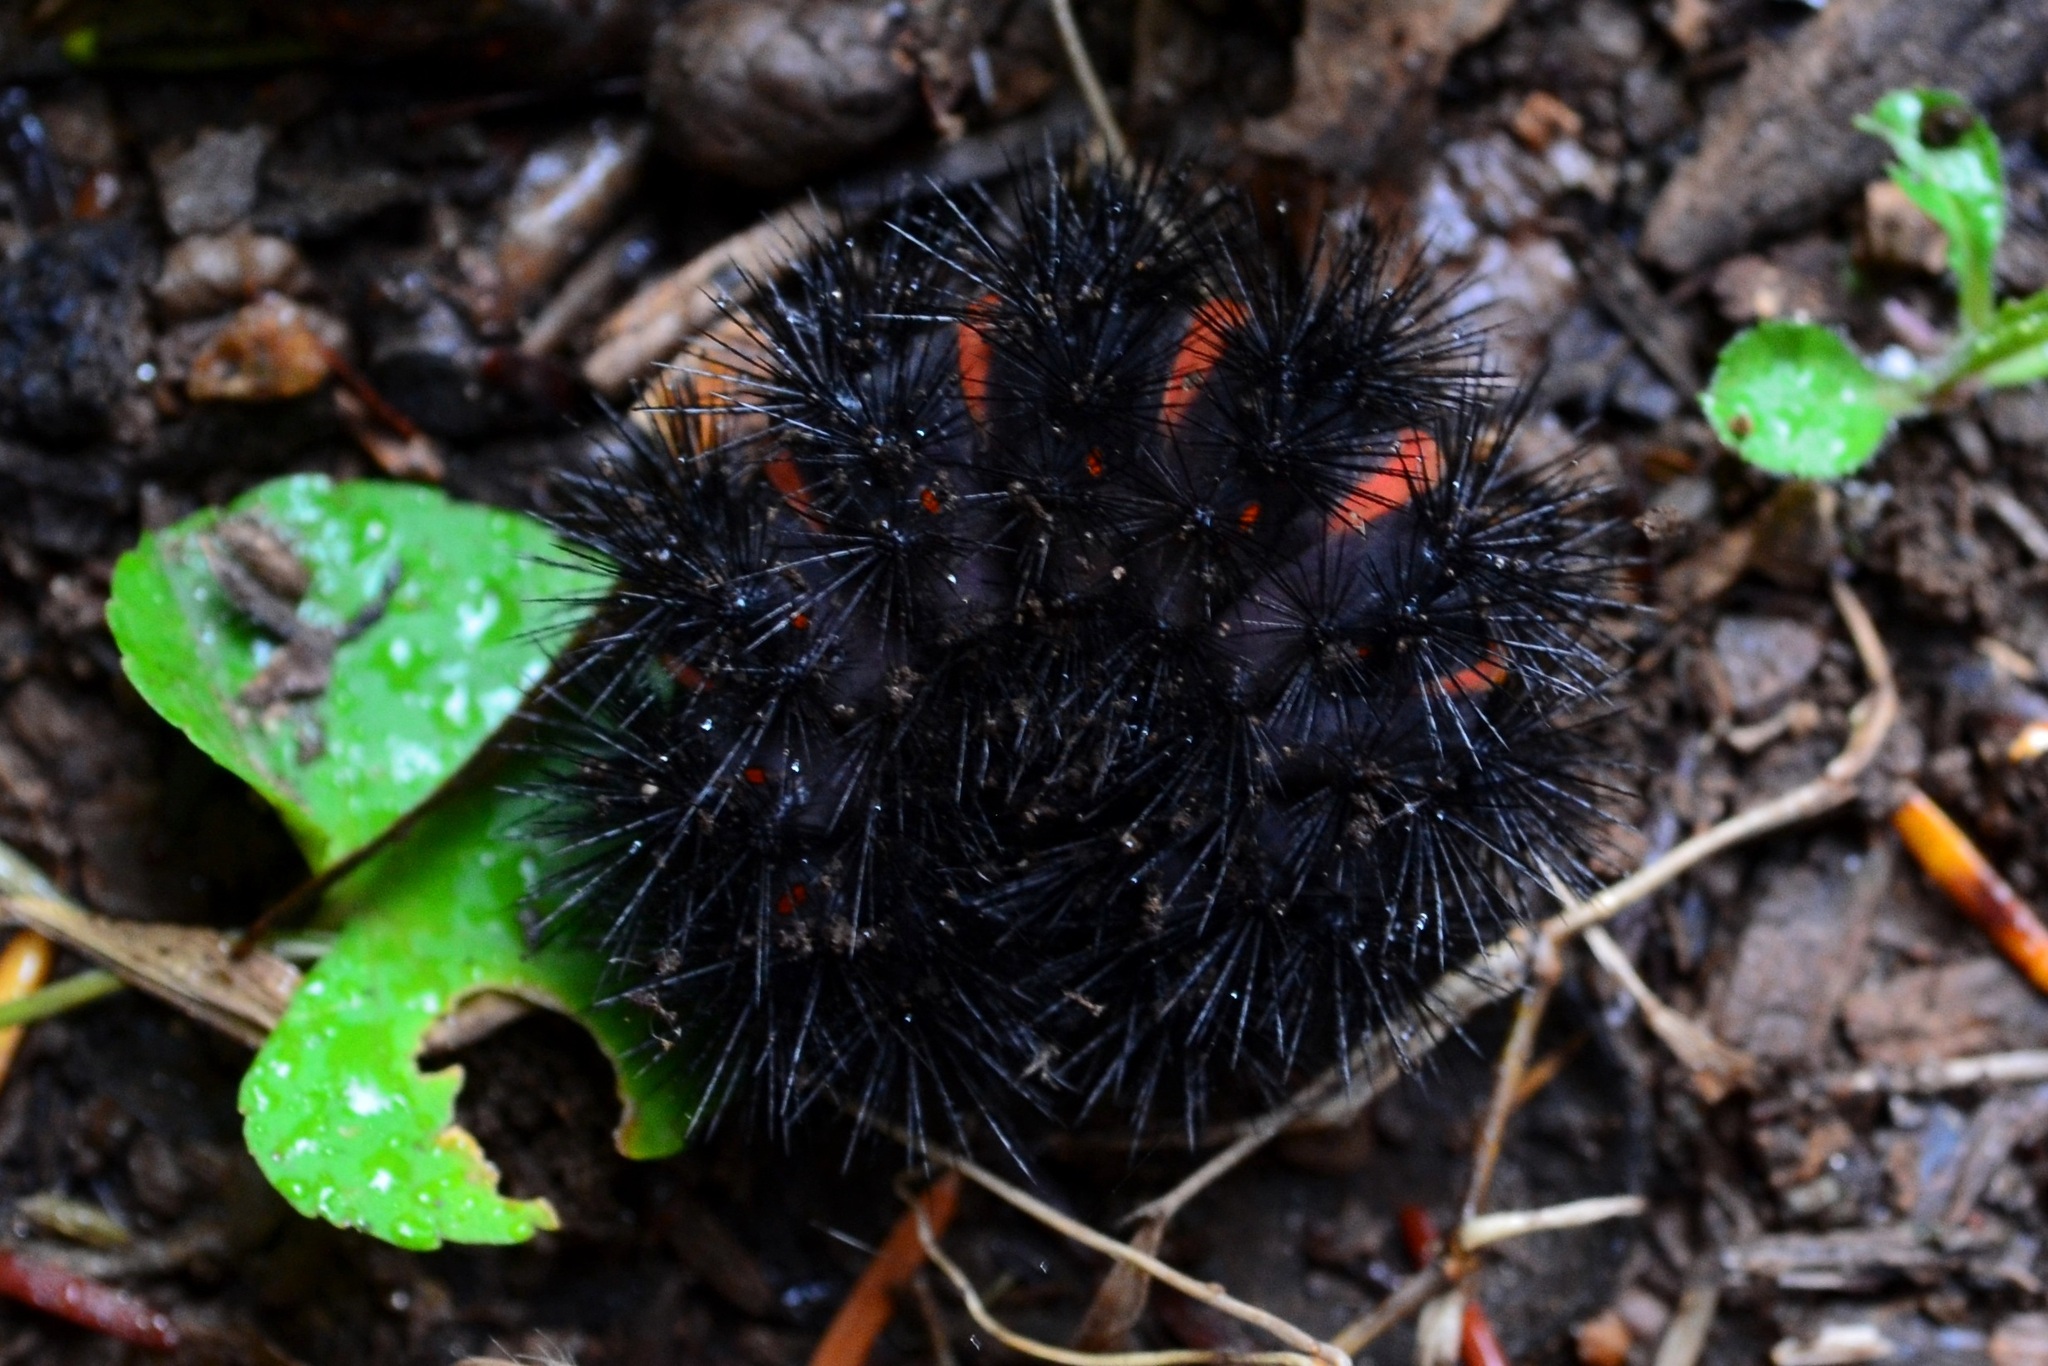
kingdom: Animalia
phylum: Arthropoda
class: Insecta
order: Lepidoptera
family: Erebidae
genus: Hypercompe
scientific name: Hypercompe scribonia
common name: Giant leopard moth
